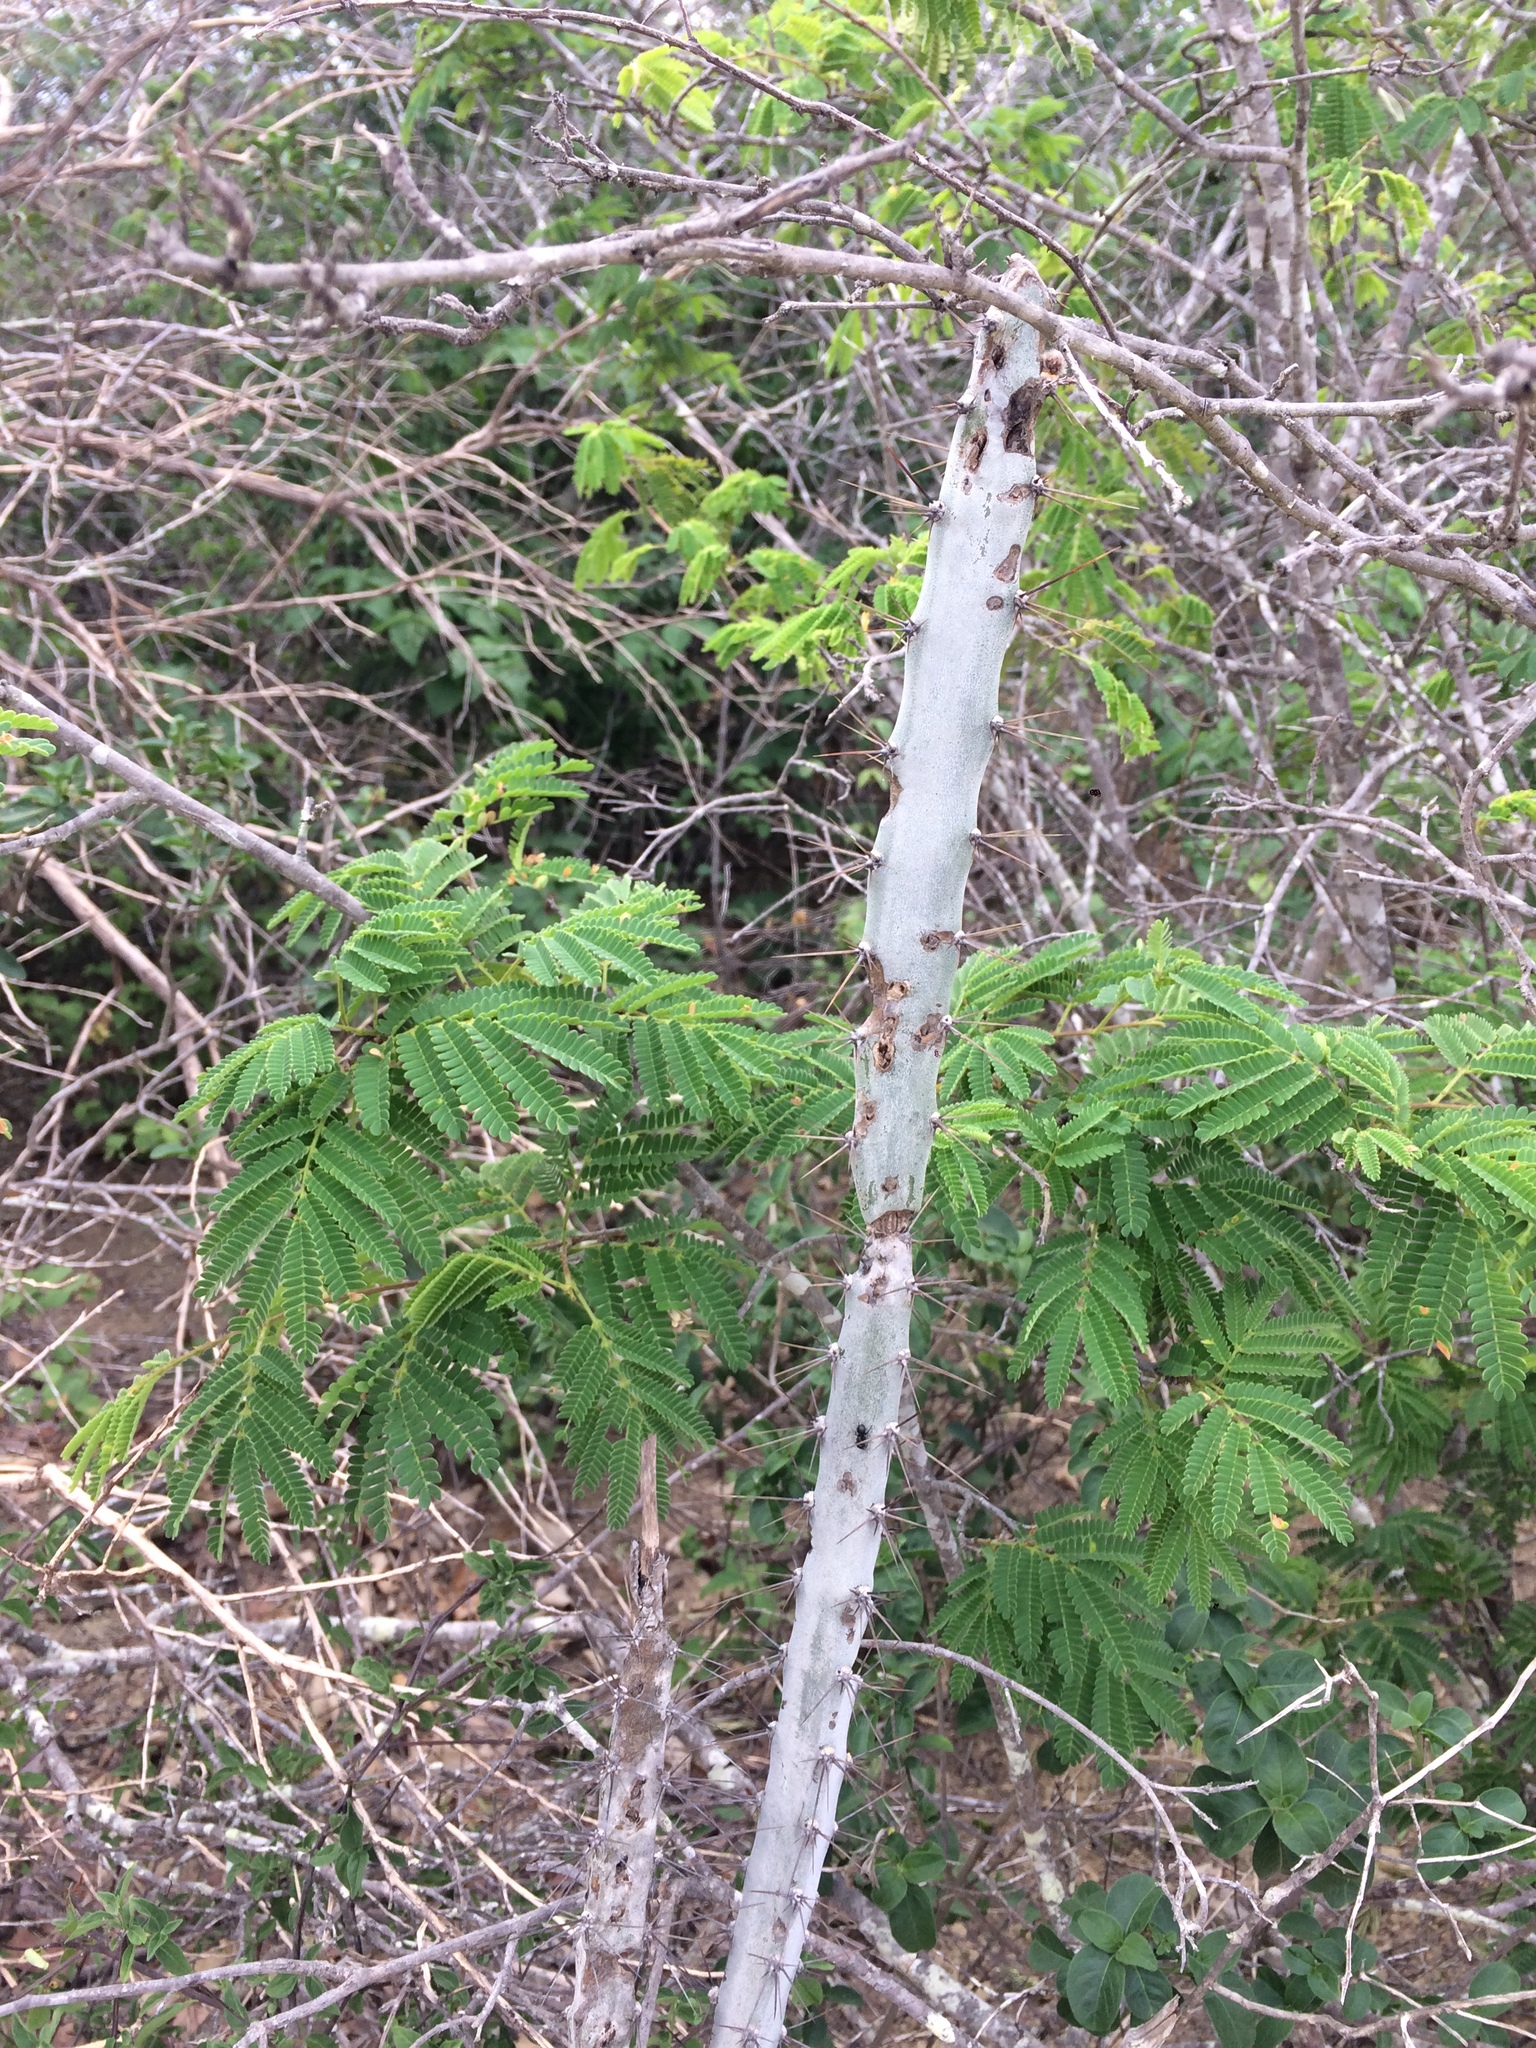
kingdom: Plantae
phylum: Tracheophyta
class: Magnoliopsida
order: Caryophyllales
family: Cactaceae
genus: Cereus
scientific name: Cereus albicaulis
